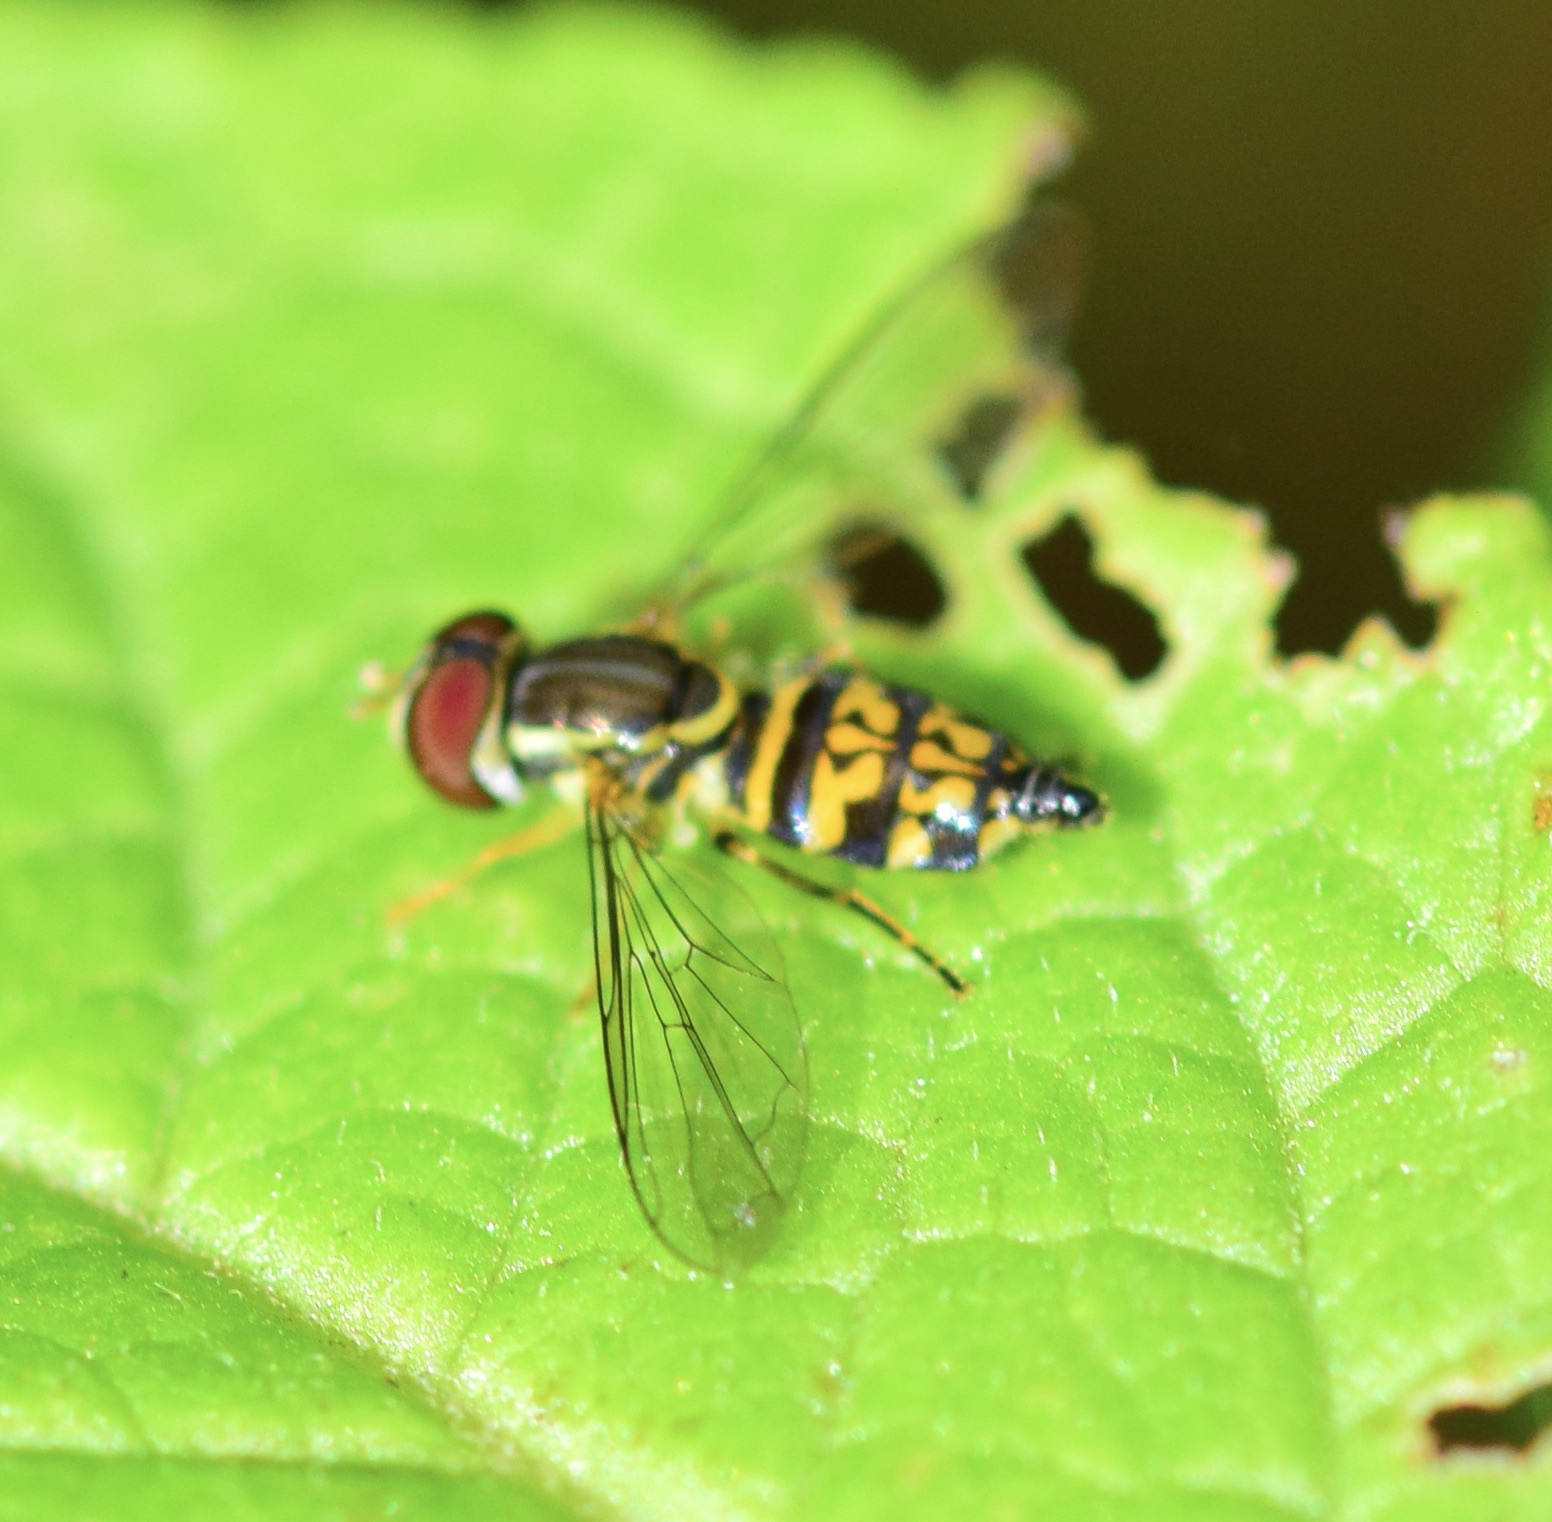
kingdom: Animalia
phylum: Arthropoda
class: Insecta
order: Diptera
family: Syrphidae
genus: Toxomerus
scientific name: Toxomerus geminatus
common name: Eastern calligrapher
